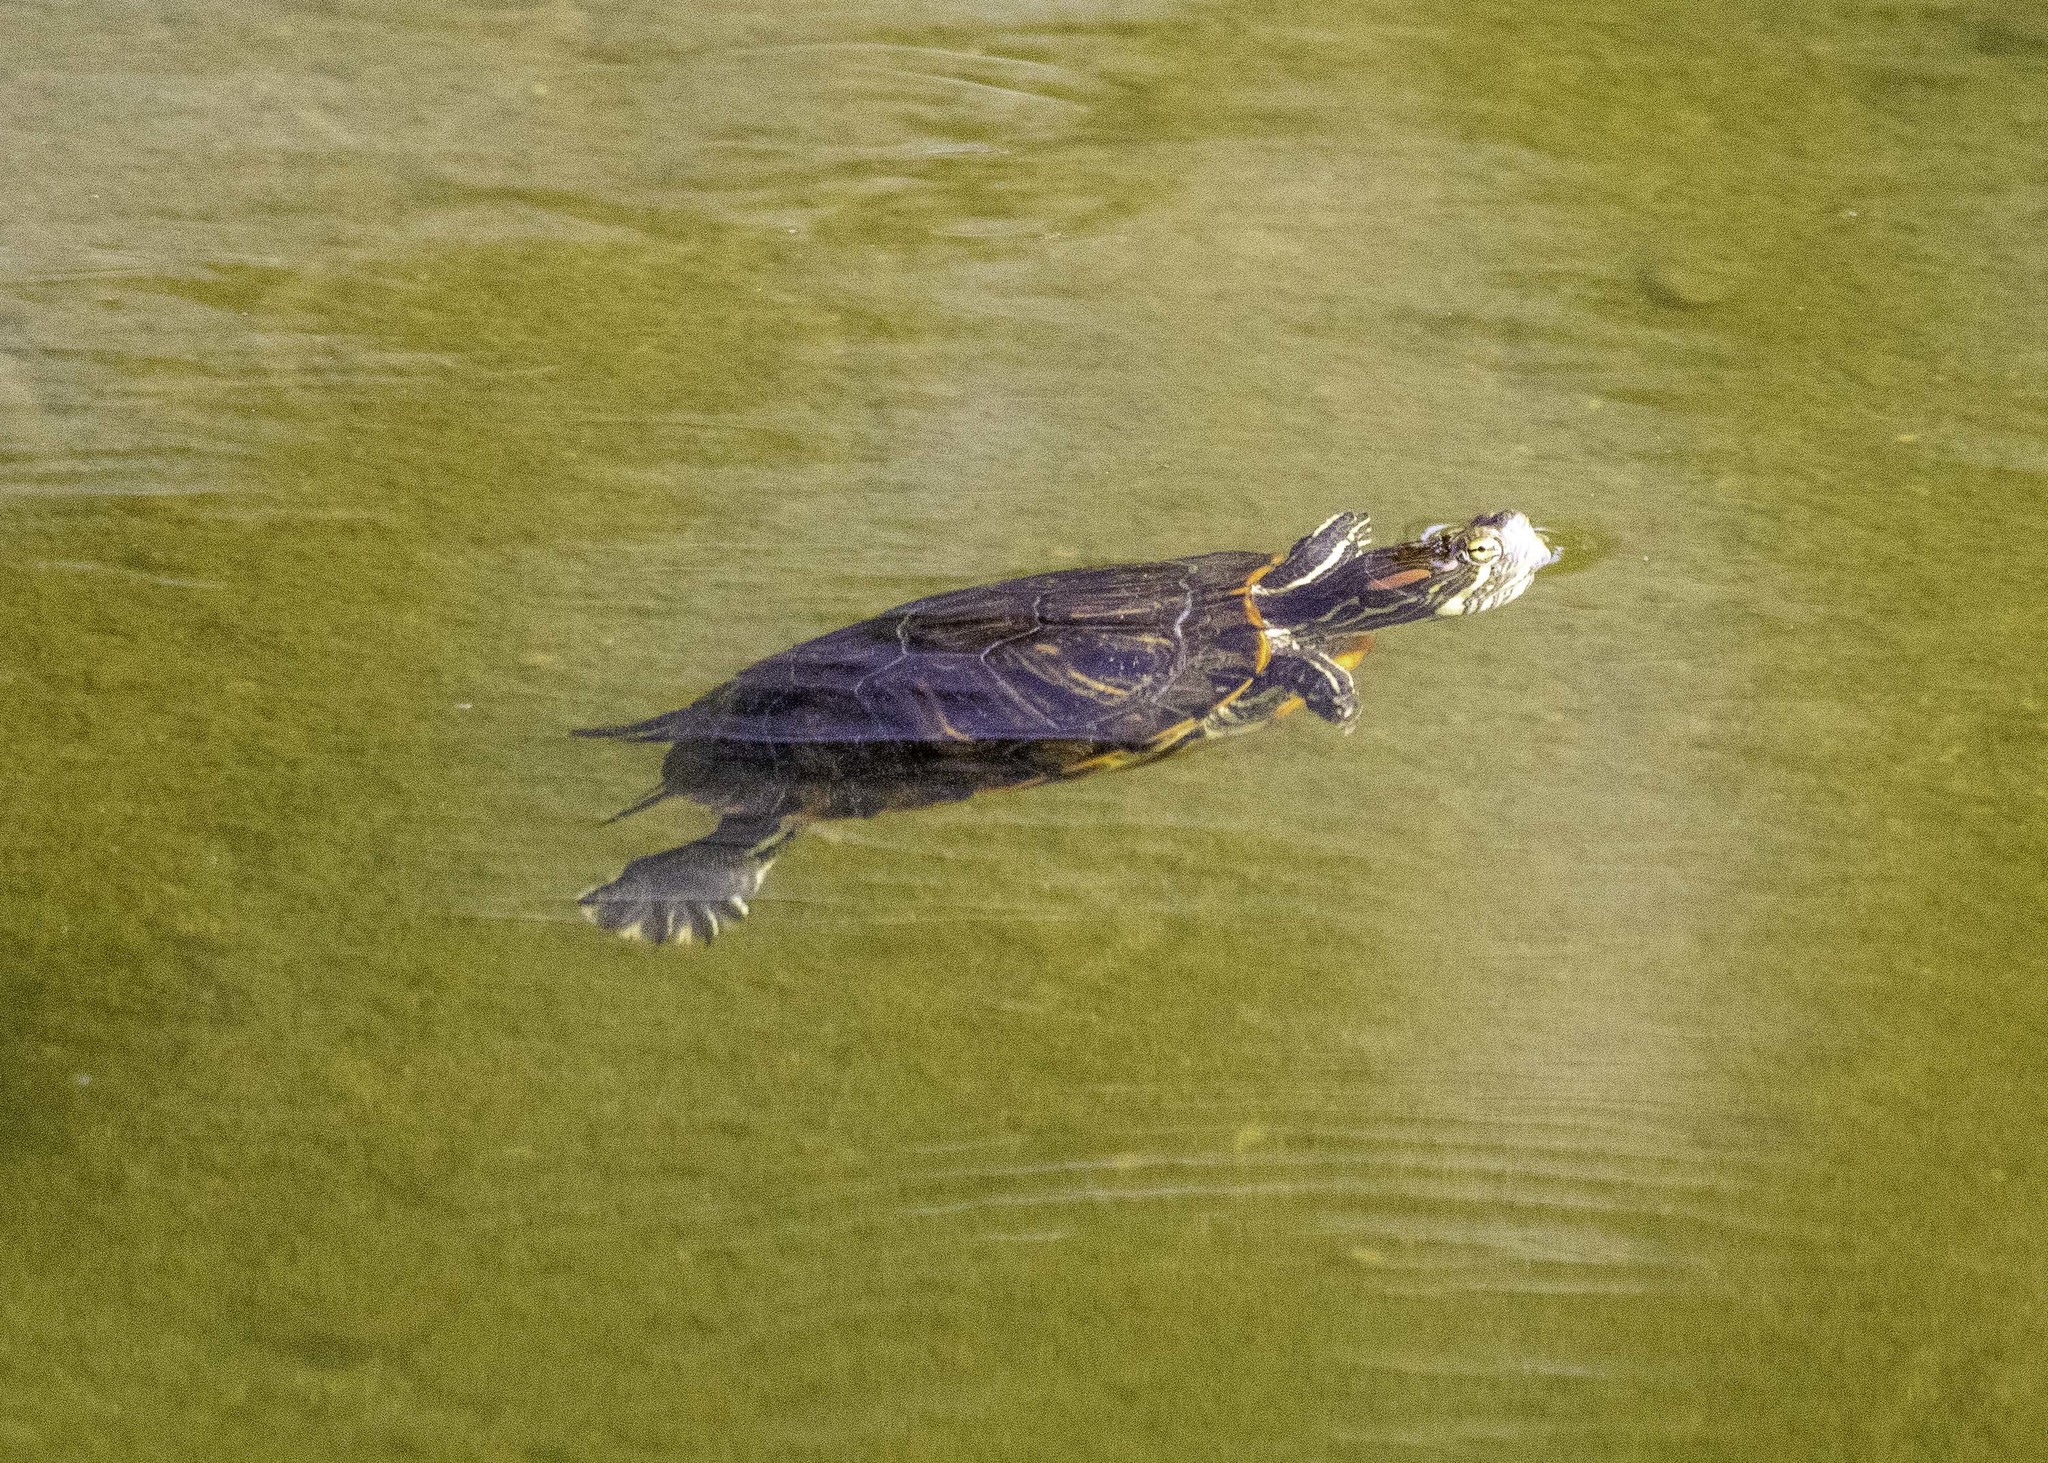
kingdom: Animalia
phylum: Chordata
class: Testudines
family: Emydidae
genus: Trachemys
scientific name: Trachemys scripta
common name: Slider
